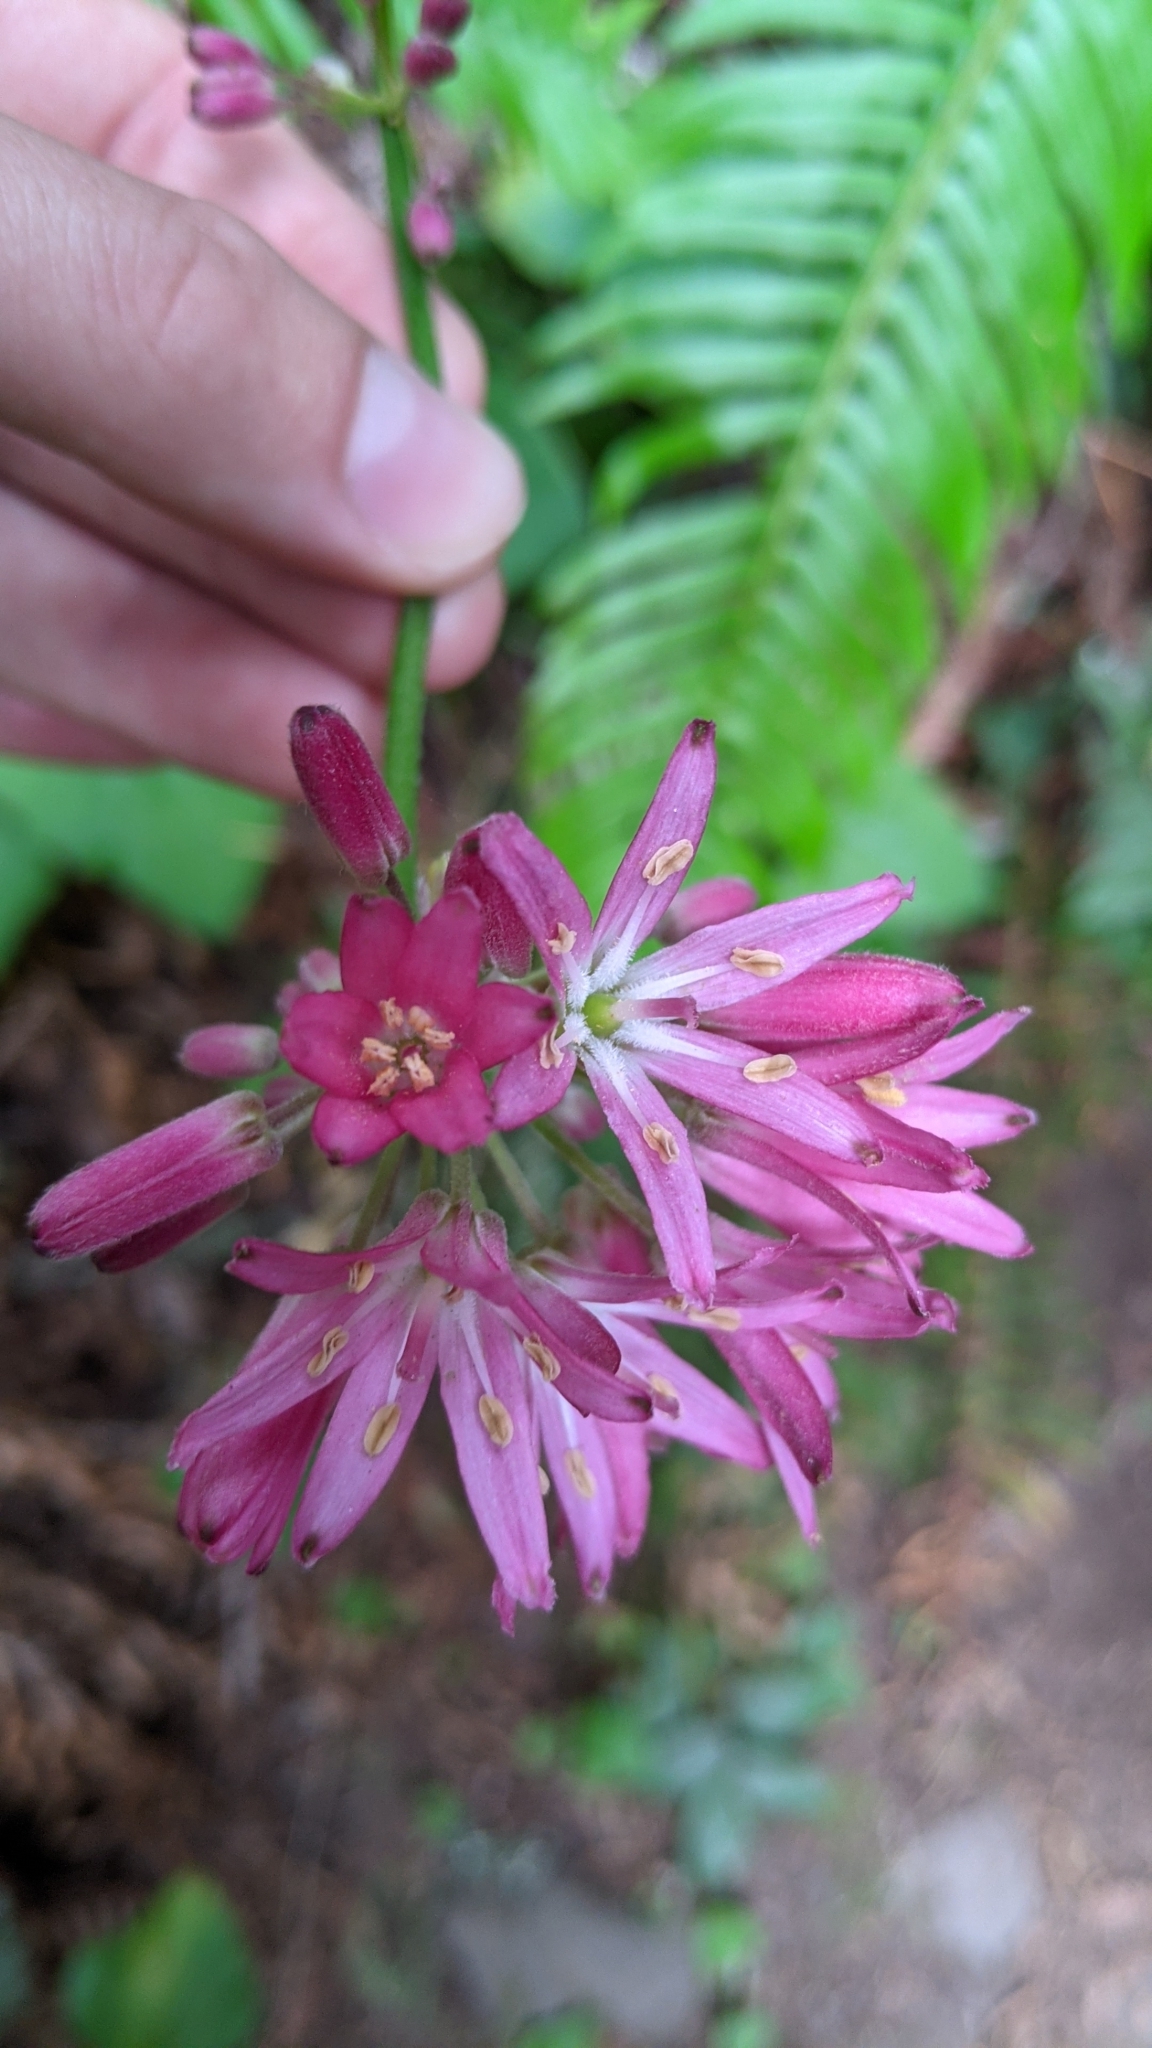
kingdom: Plantae
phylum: Tracheophyta
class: Liliopsida
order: Liliales
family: Liliaceae
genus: Clintonia
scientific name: Clintonia andrewsiana
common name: Red clintonia
